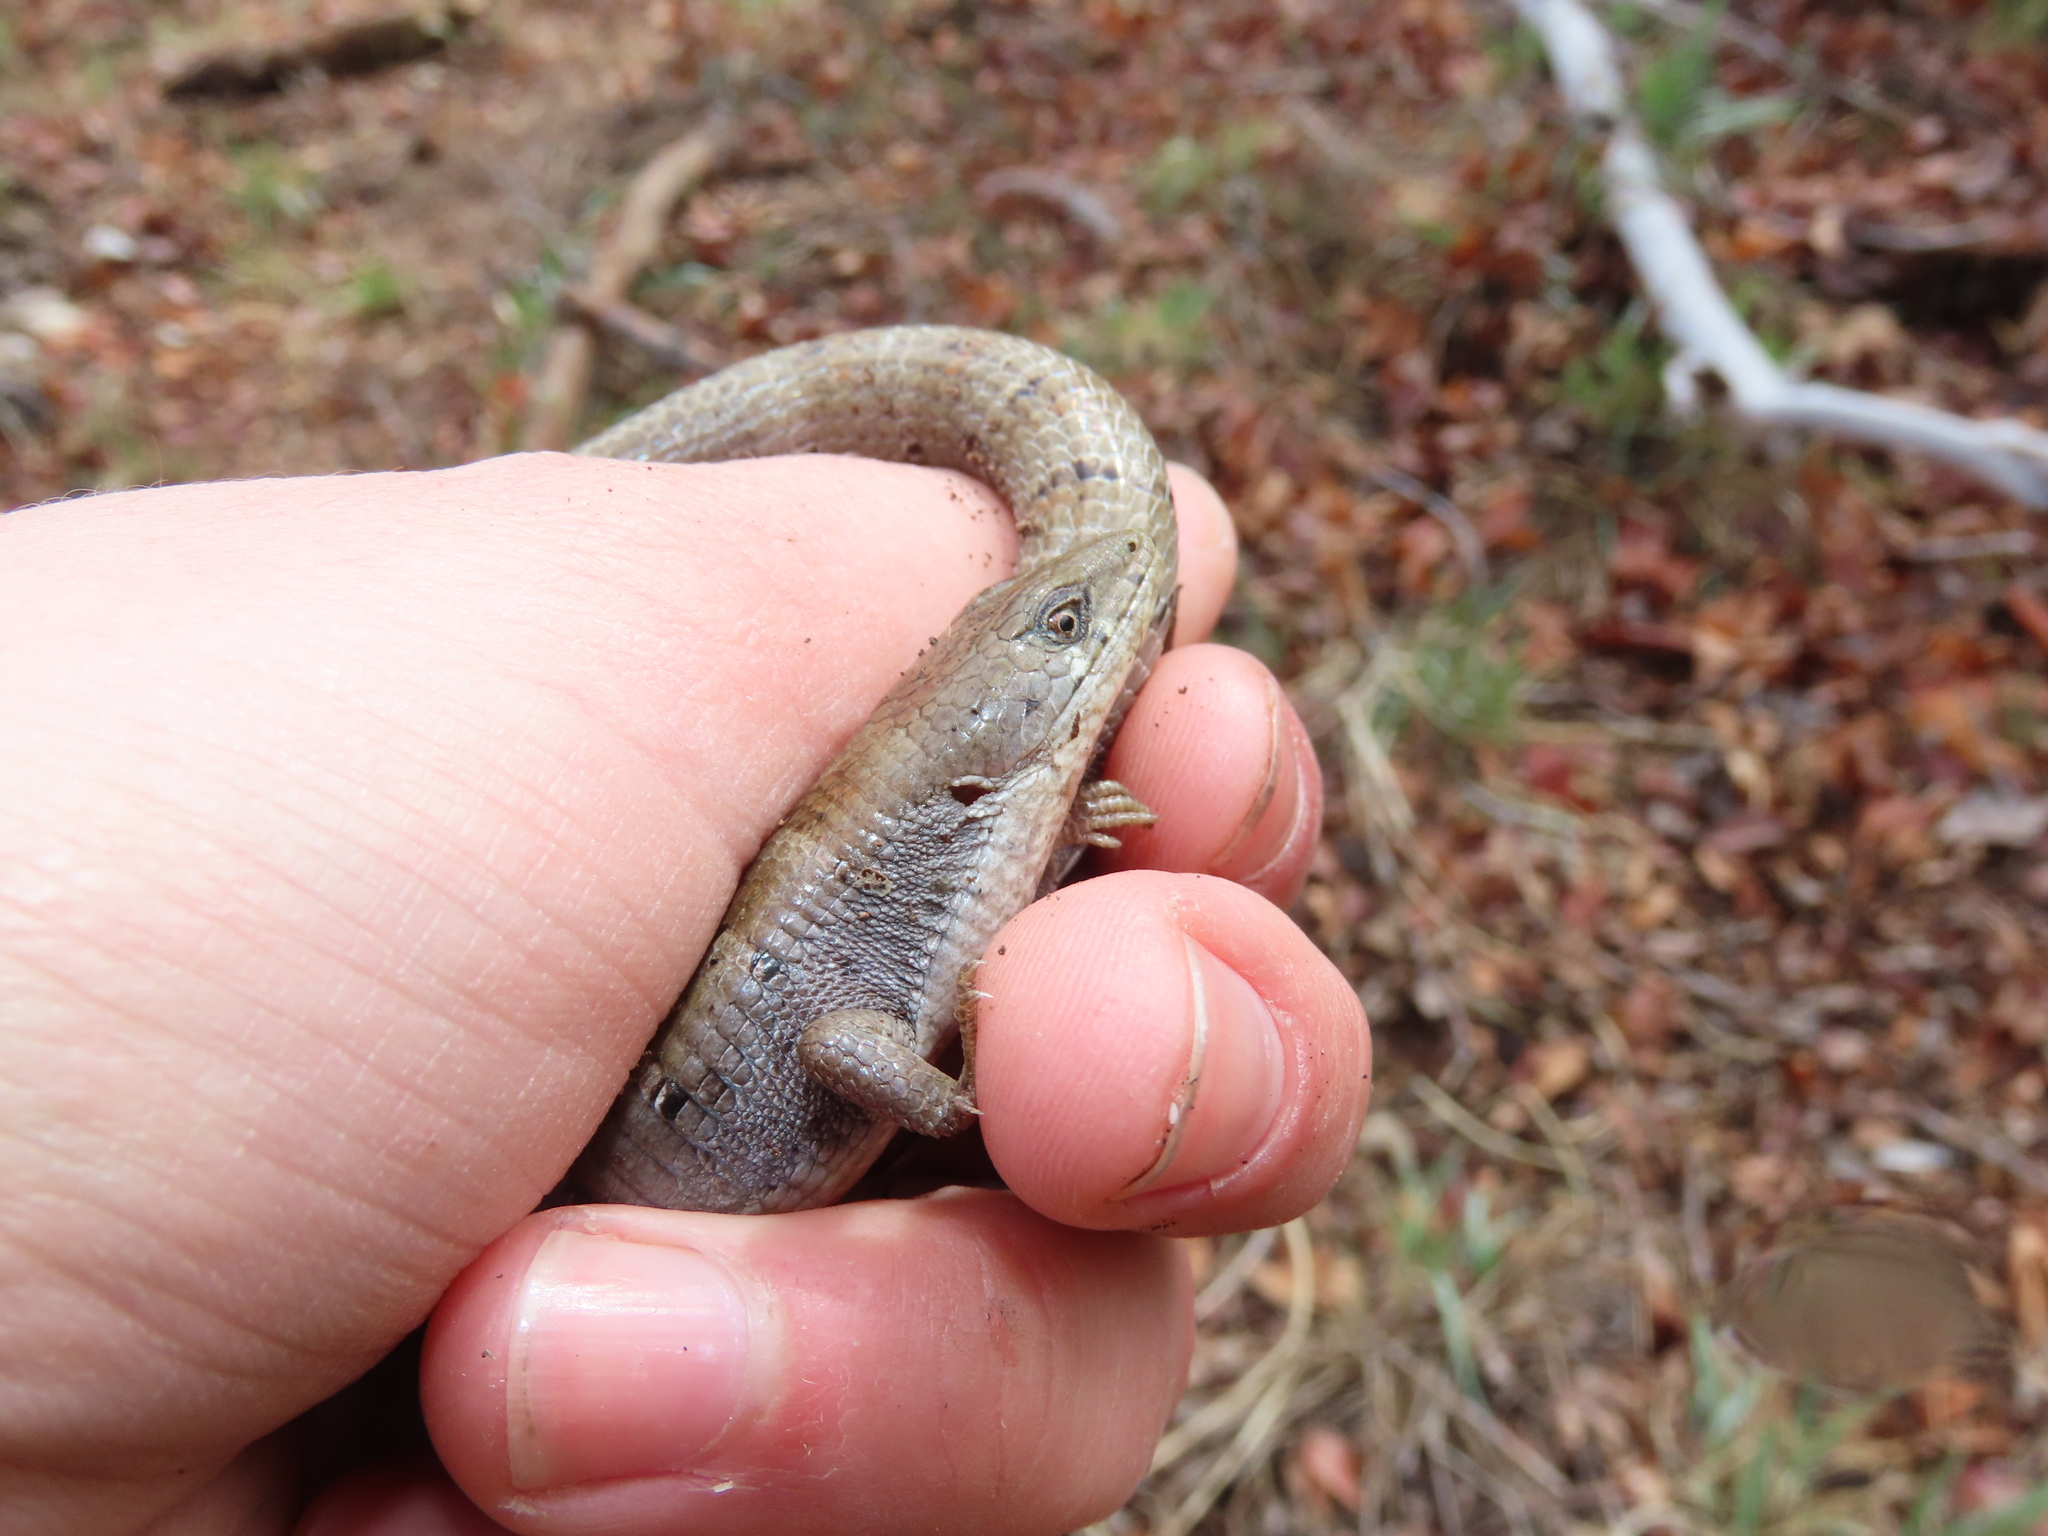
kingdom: Animalia
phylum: Chordata
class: Squamata
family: Anguidae
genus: Elgaria
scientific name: Elgaria kingii
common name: Madrean alligator lizard
